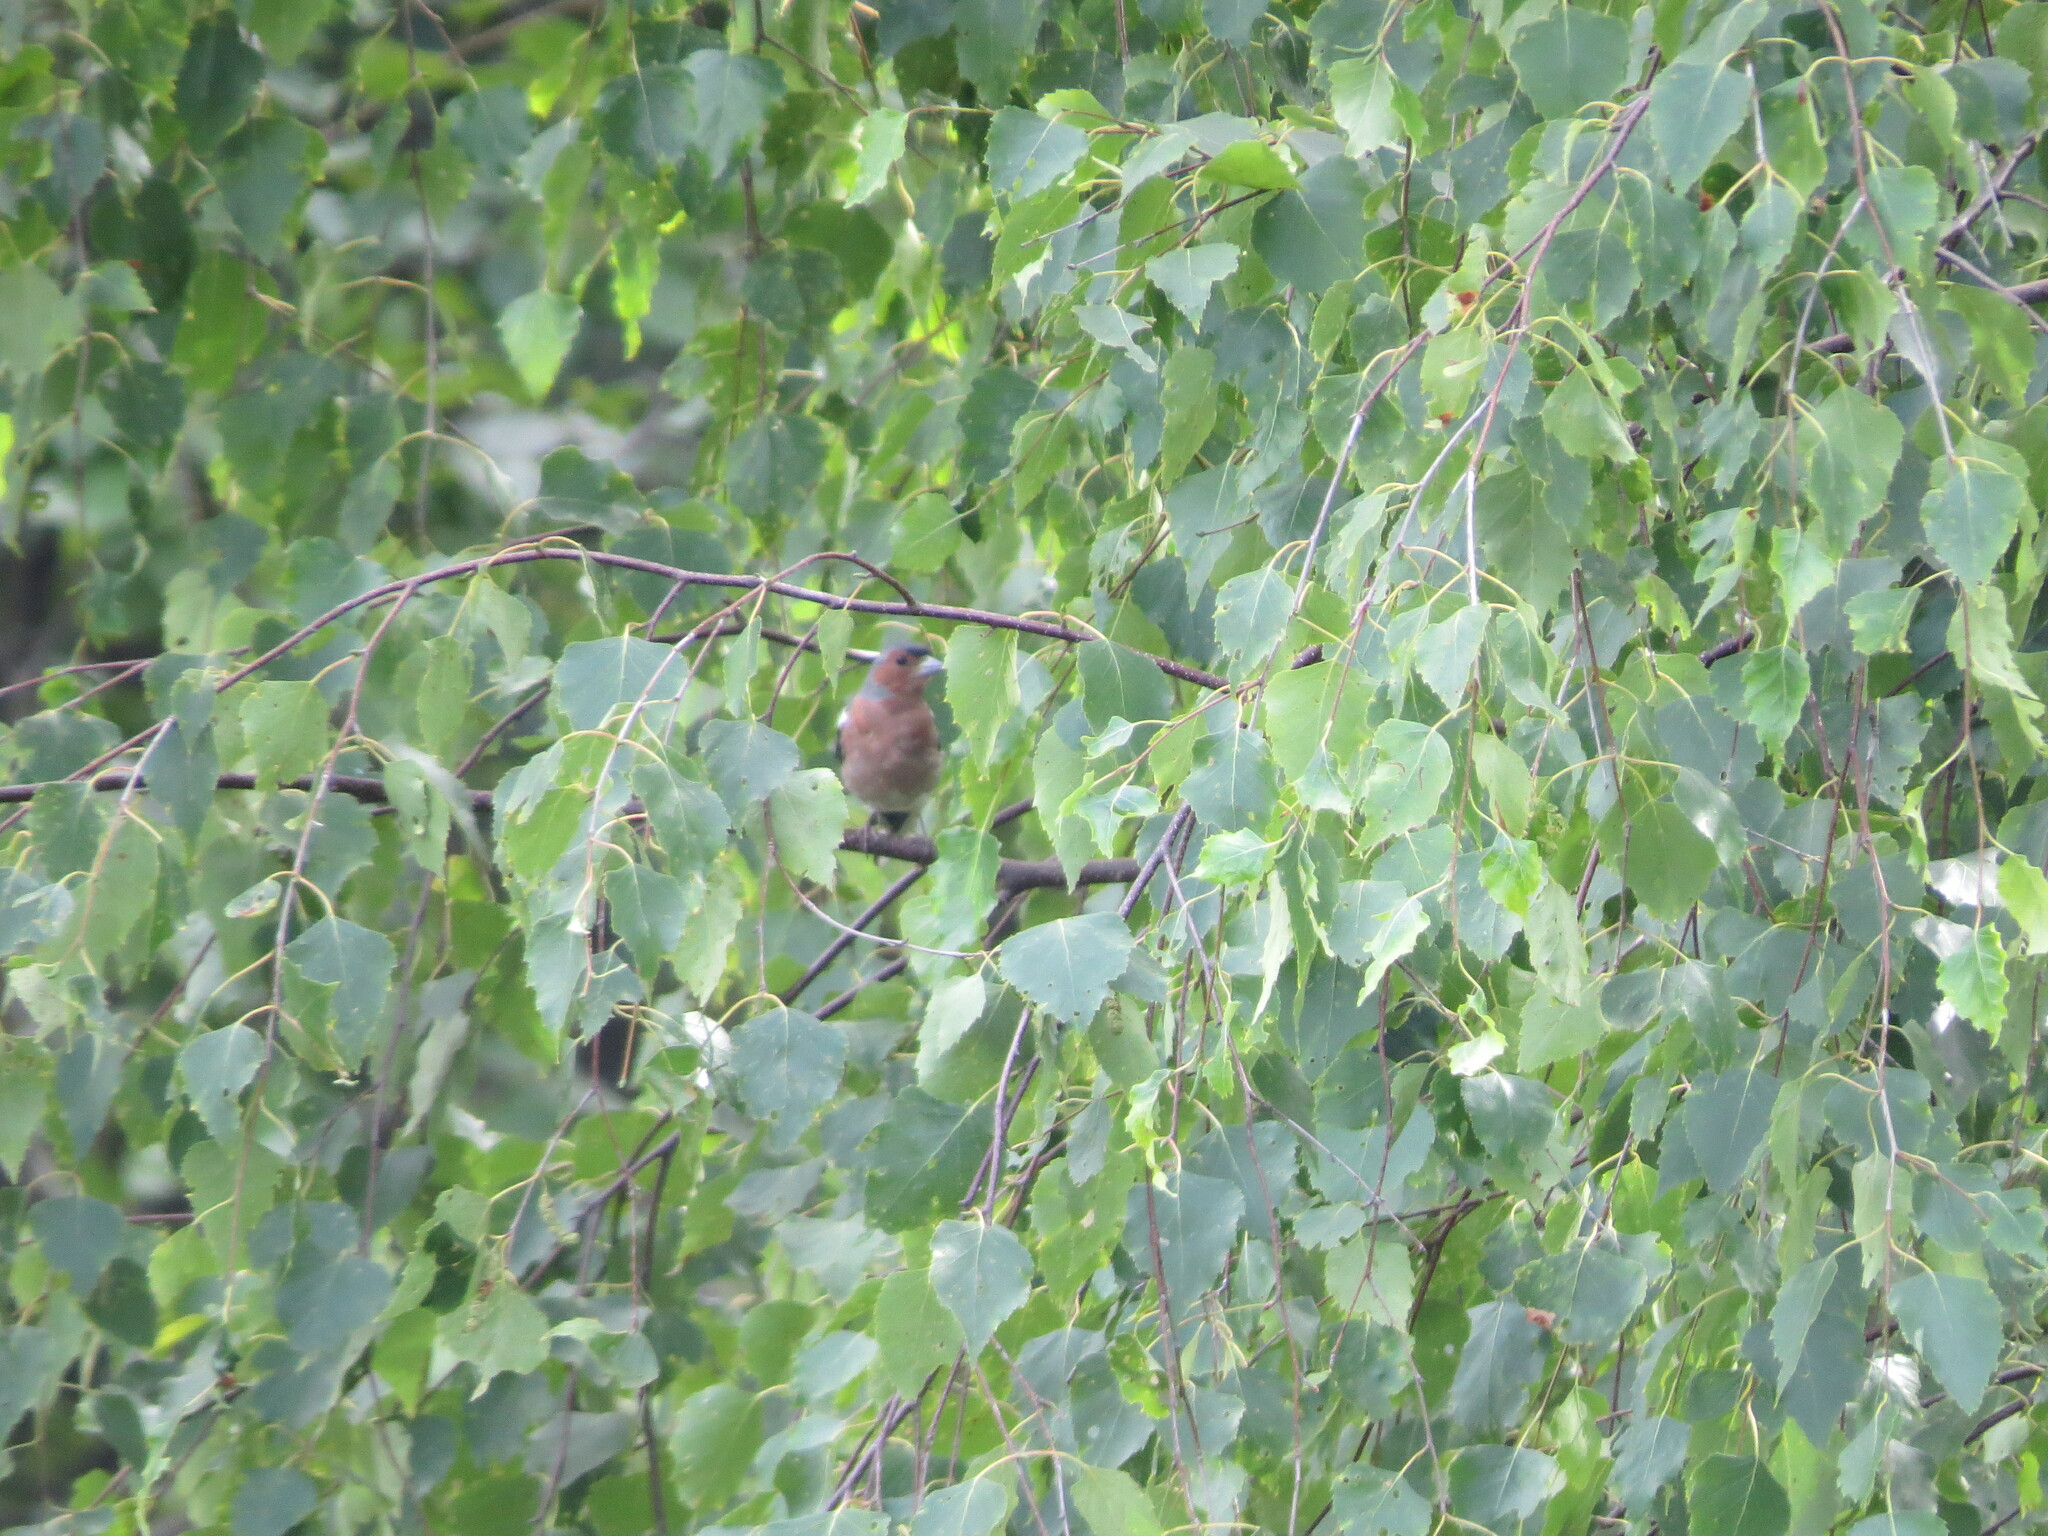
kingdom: Animalia
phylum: Chordata
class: Aves
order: Passeriformes
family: Fringillidae
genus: Fringilla
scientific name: Fringilla coelebs
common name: Common chaffinch
